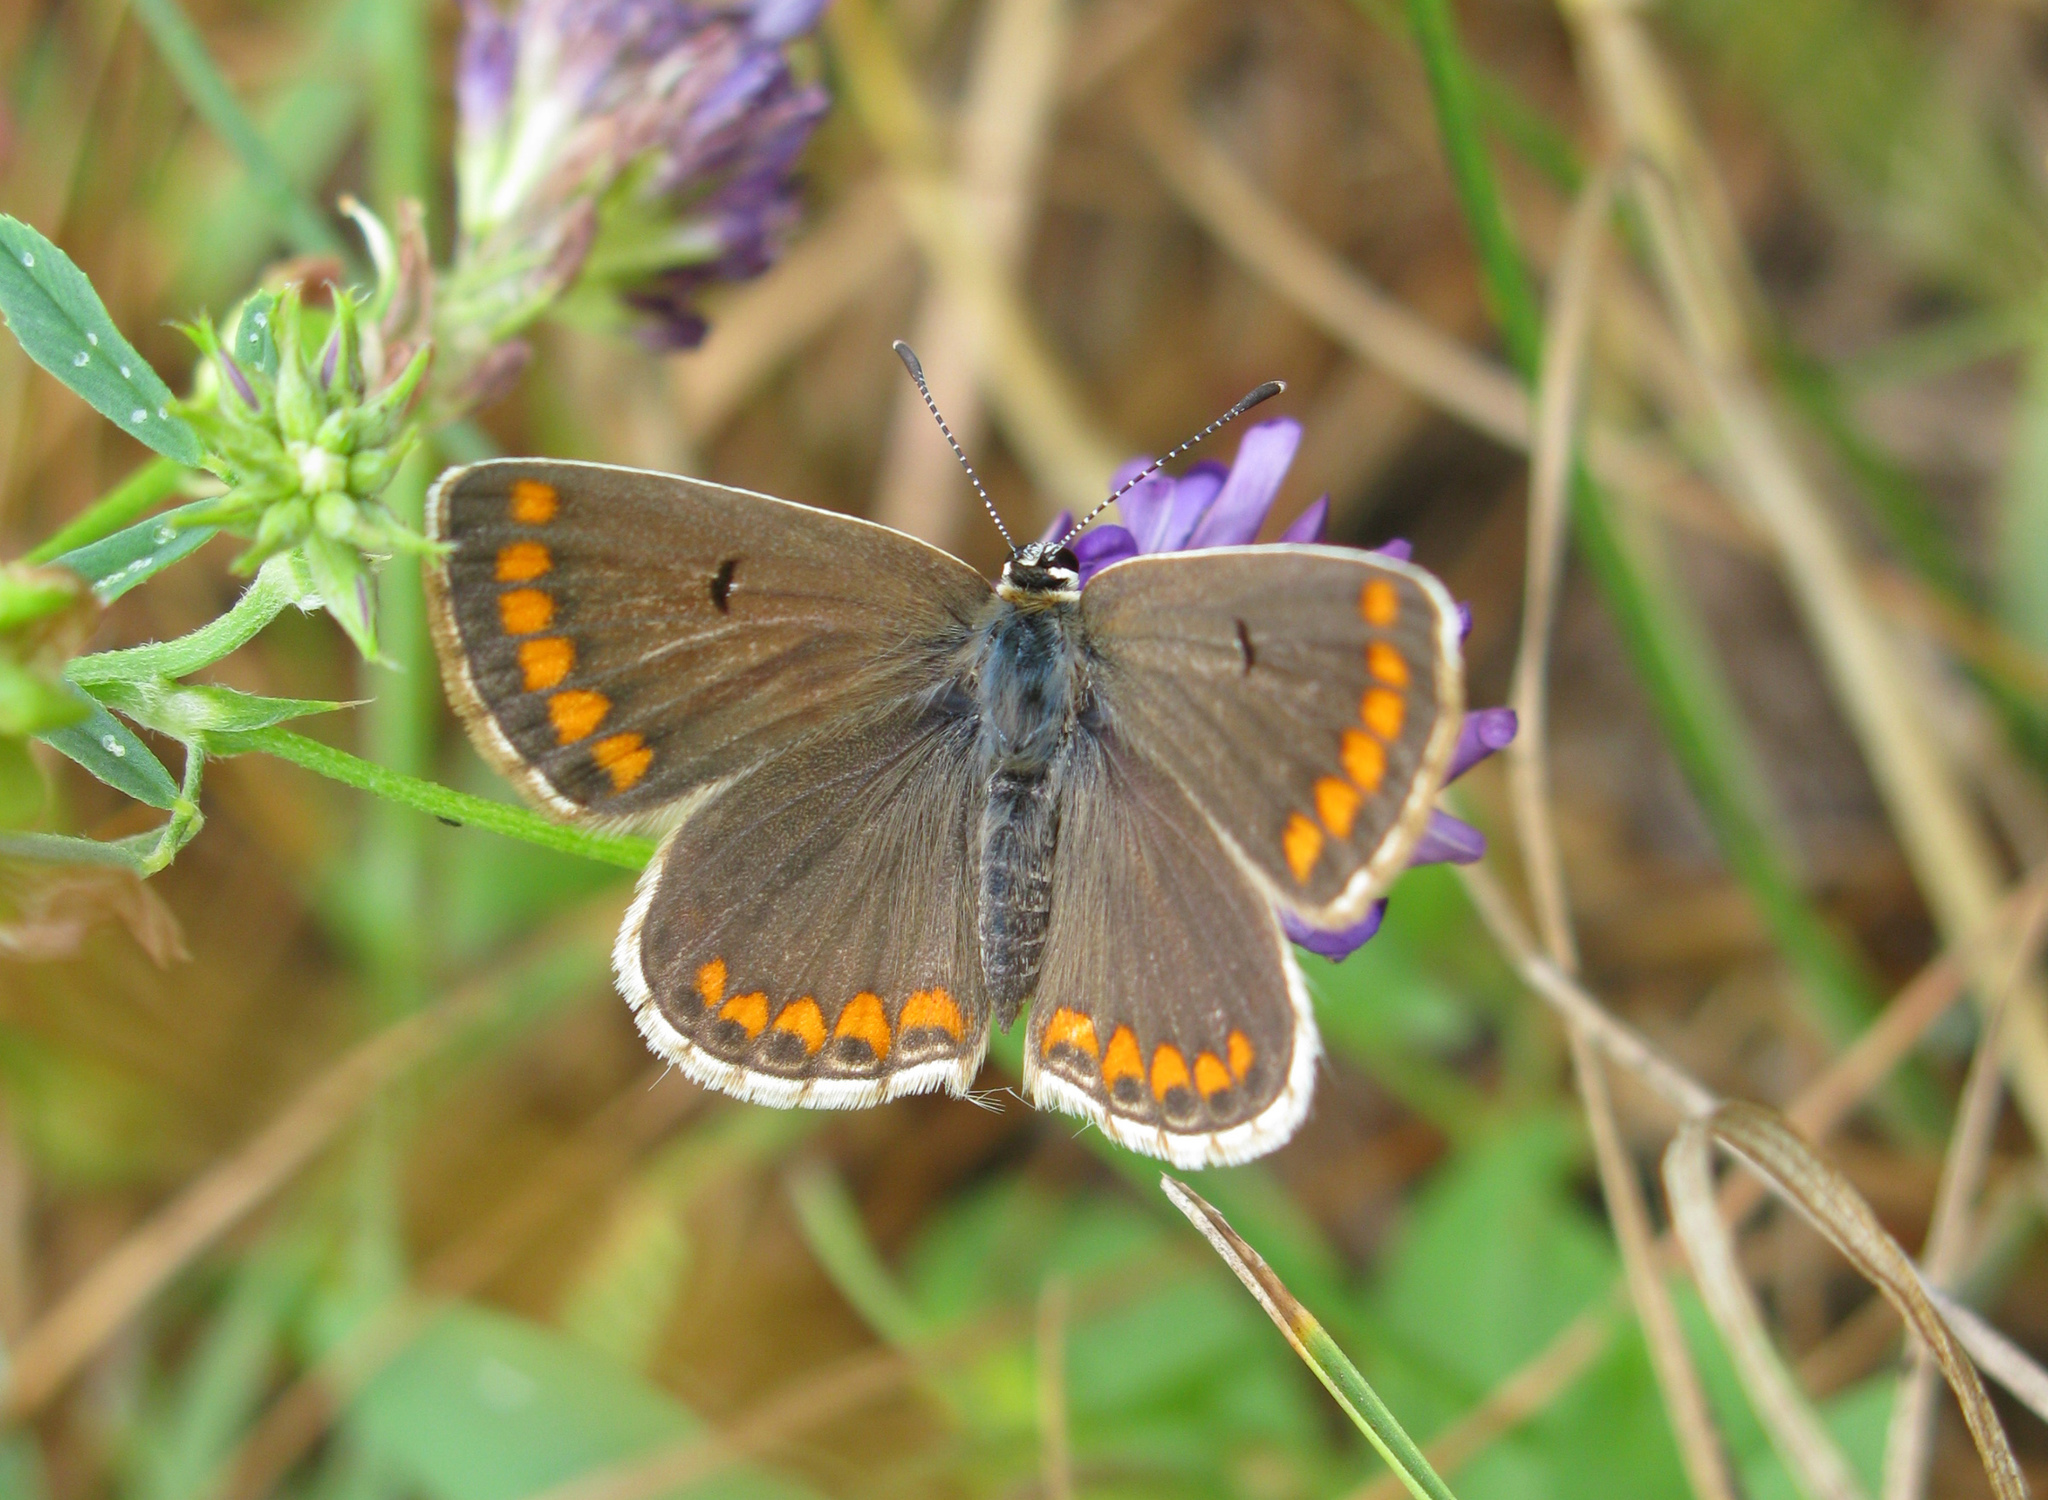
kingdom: Animalia
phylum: Arthropoda
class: Insecta
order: Lepidoptera
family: Lycaenidae
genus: Aricia
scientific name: Aricia agestis
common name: Brown argus
